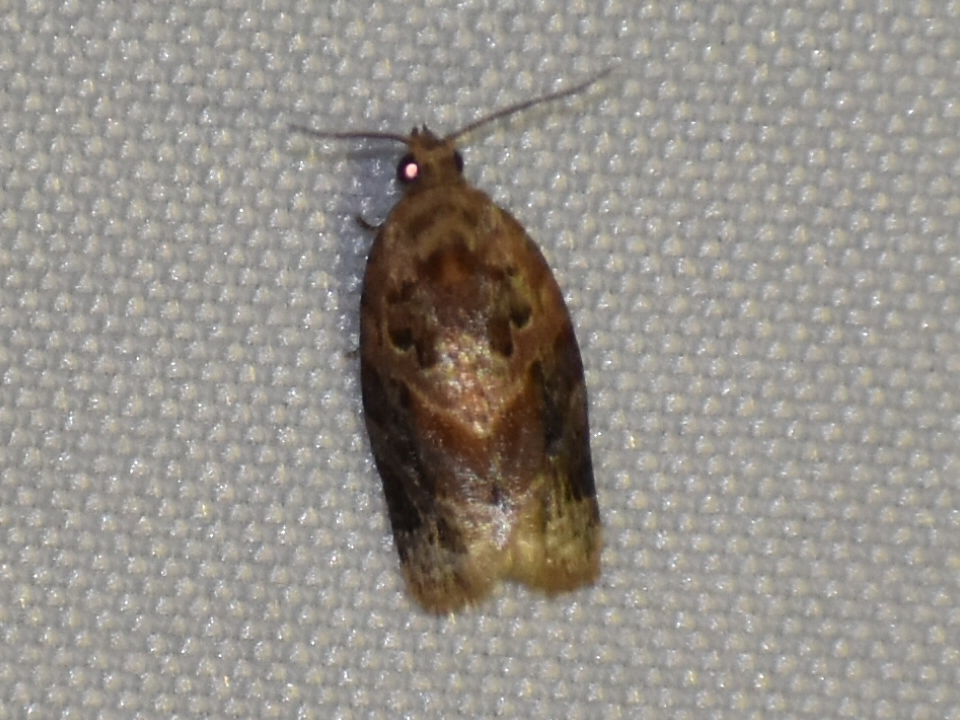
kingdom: Animalia
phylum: Arthropoda
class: Insecta
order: Lepidoptera
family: Tortricidae
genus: Argyrotaenia
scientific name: Argyrotaenia velutinana
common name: Red-banded leafroller moth
